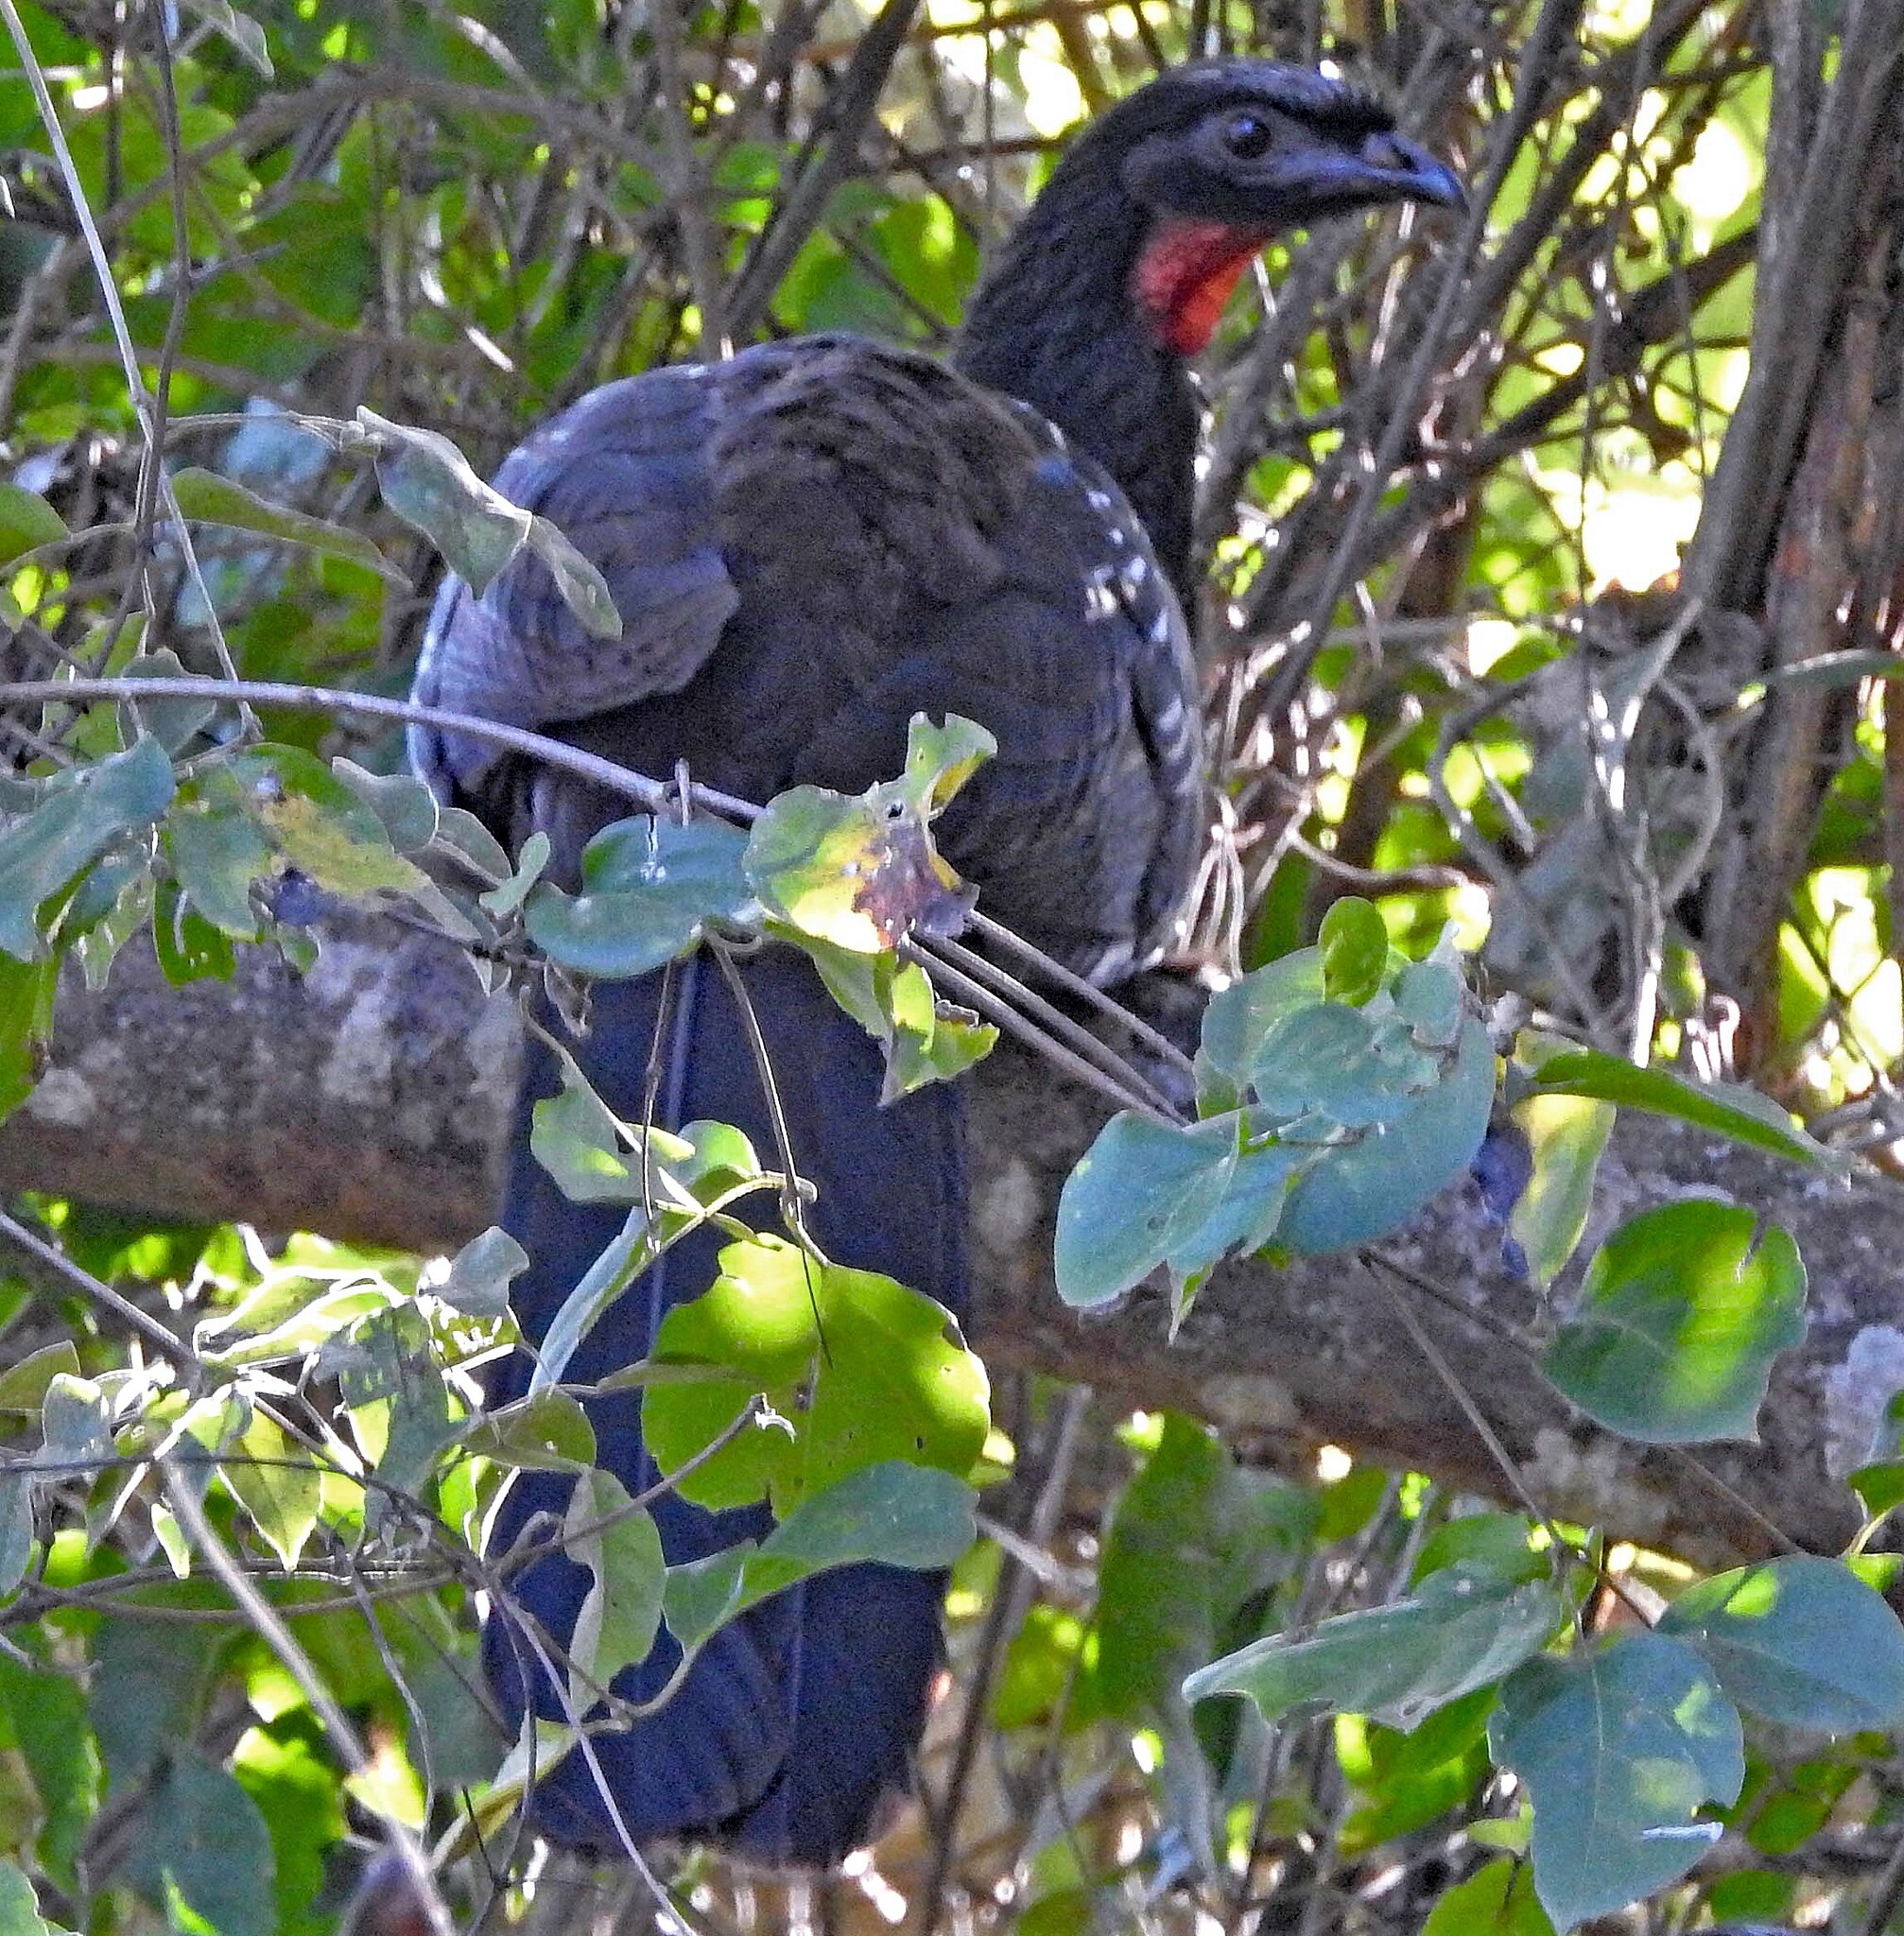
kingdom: Animalia
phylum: Chordata
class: Aves
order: Galliformes
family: Cracidae
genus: Penelope
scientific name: Penelope bridgesi
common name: Yungas guan
